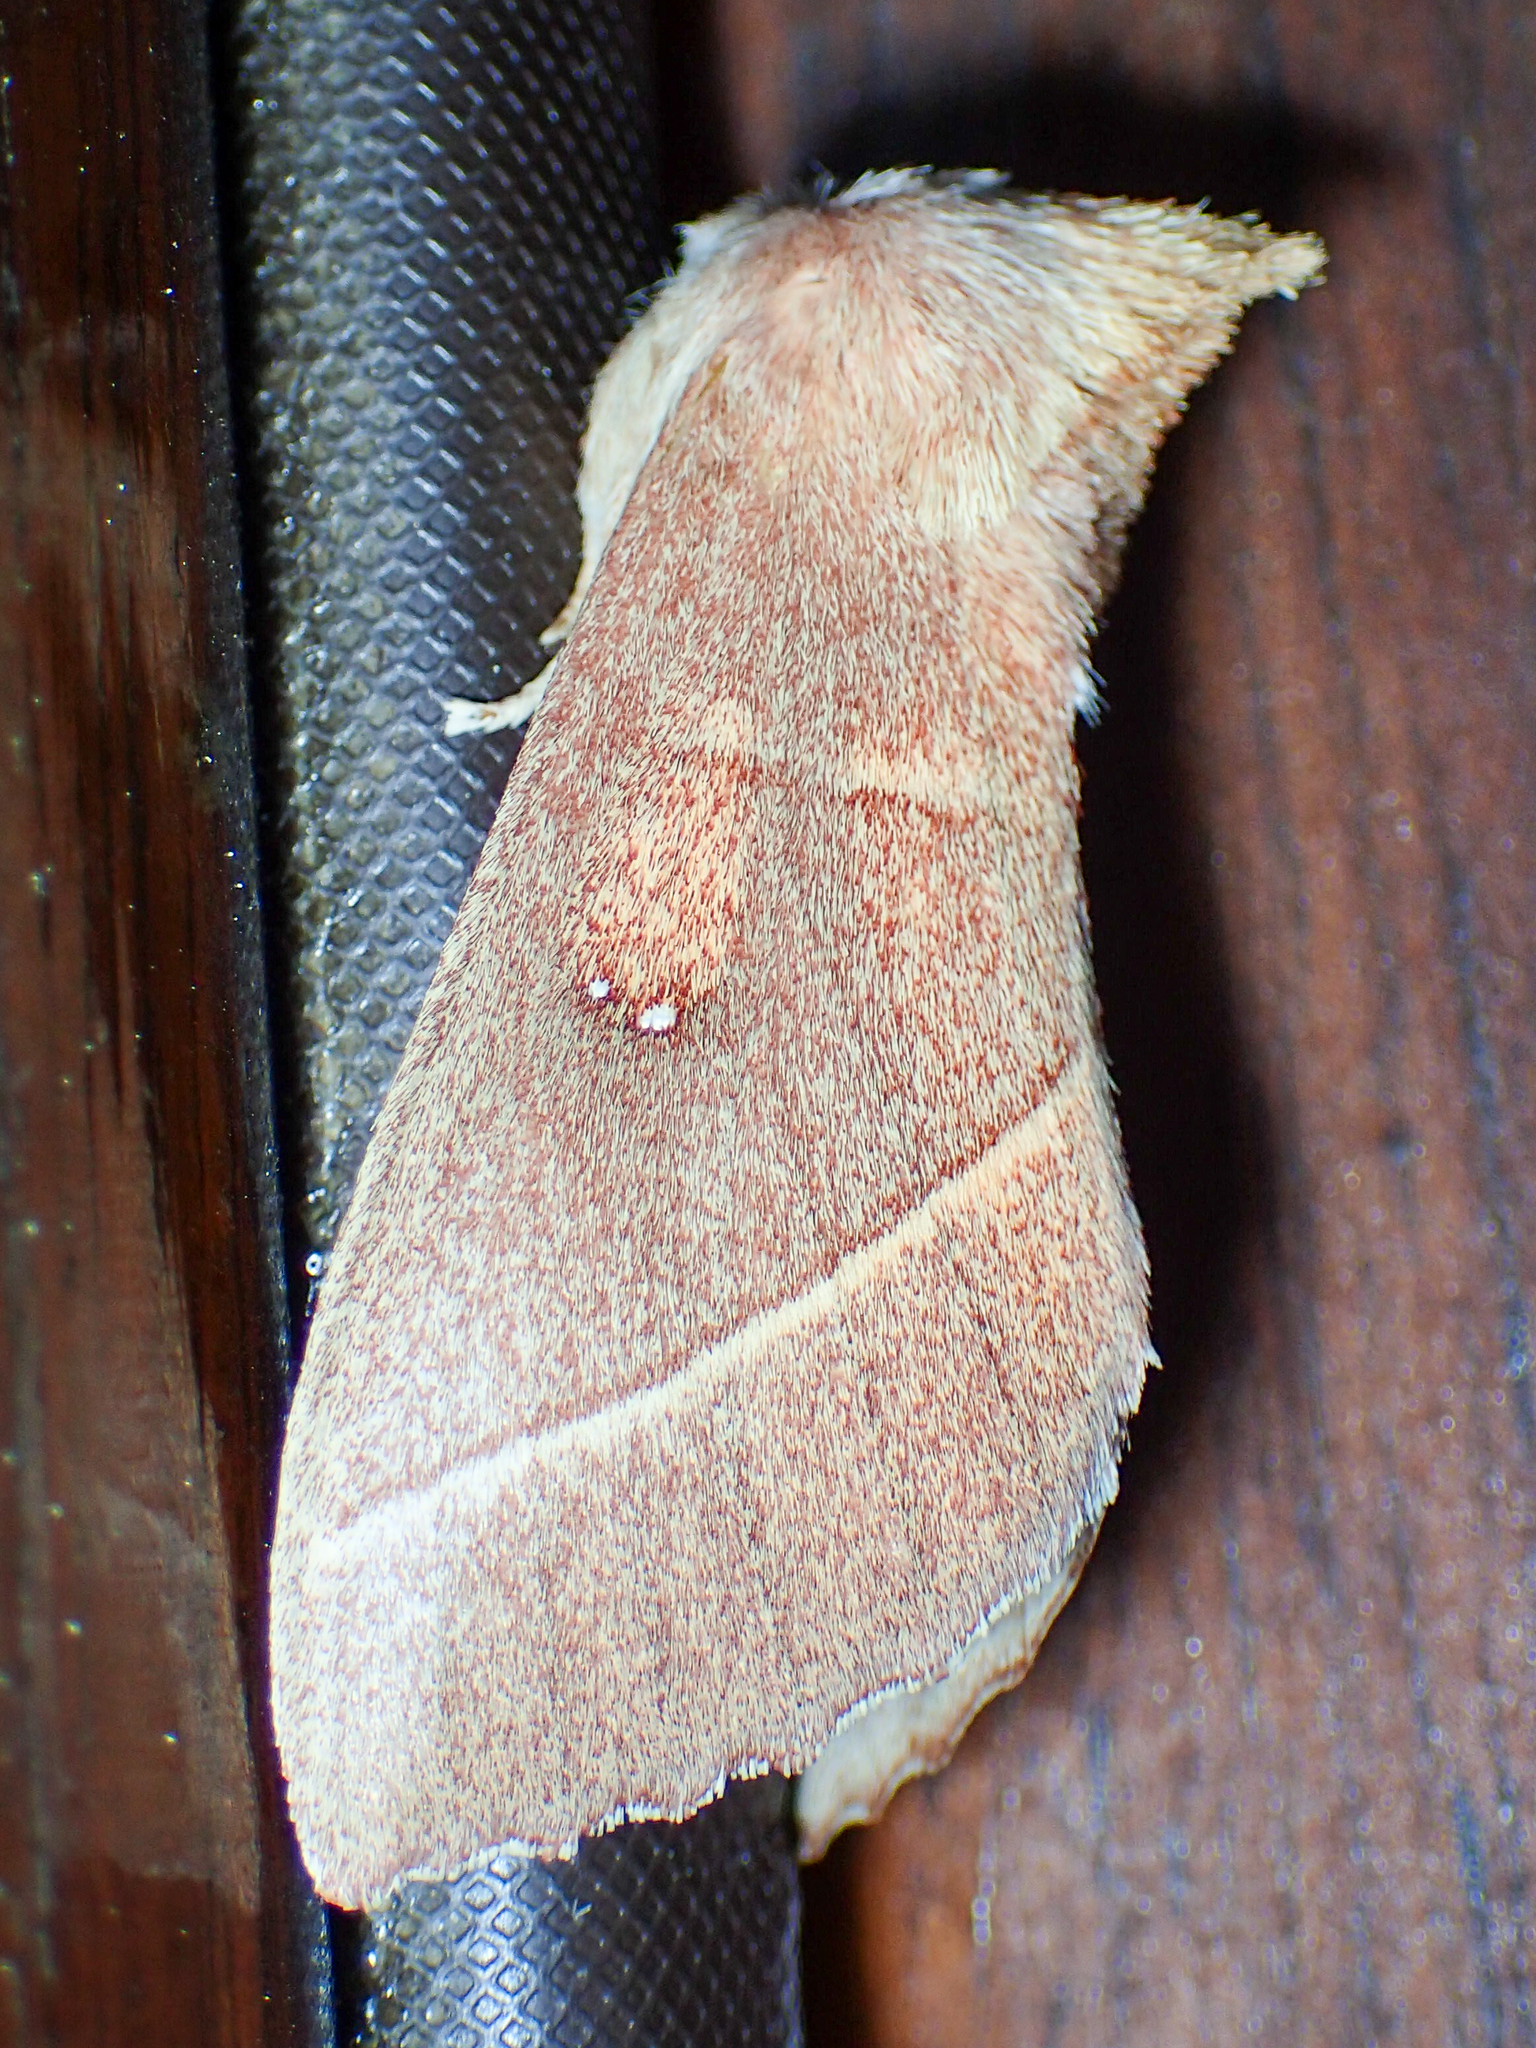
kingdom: Animalia
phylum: Arthropoda
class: Insecta
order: Lepidoptera
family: Notodontidae
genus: Nadata
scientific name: Nadata gibbosa
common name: White-dotted prominent
